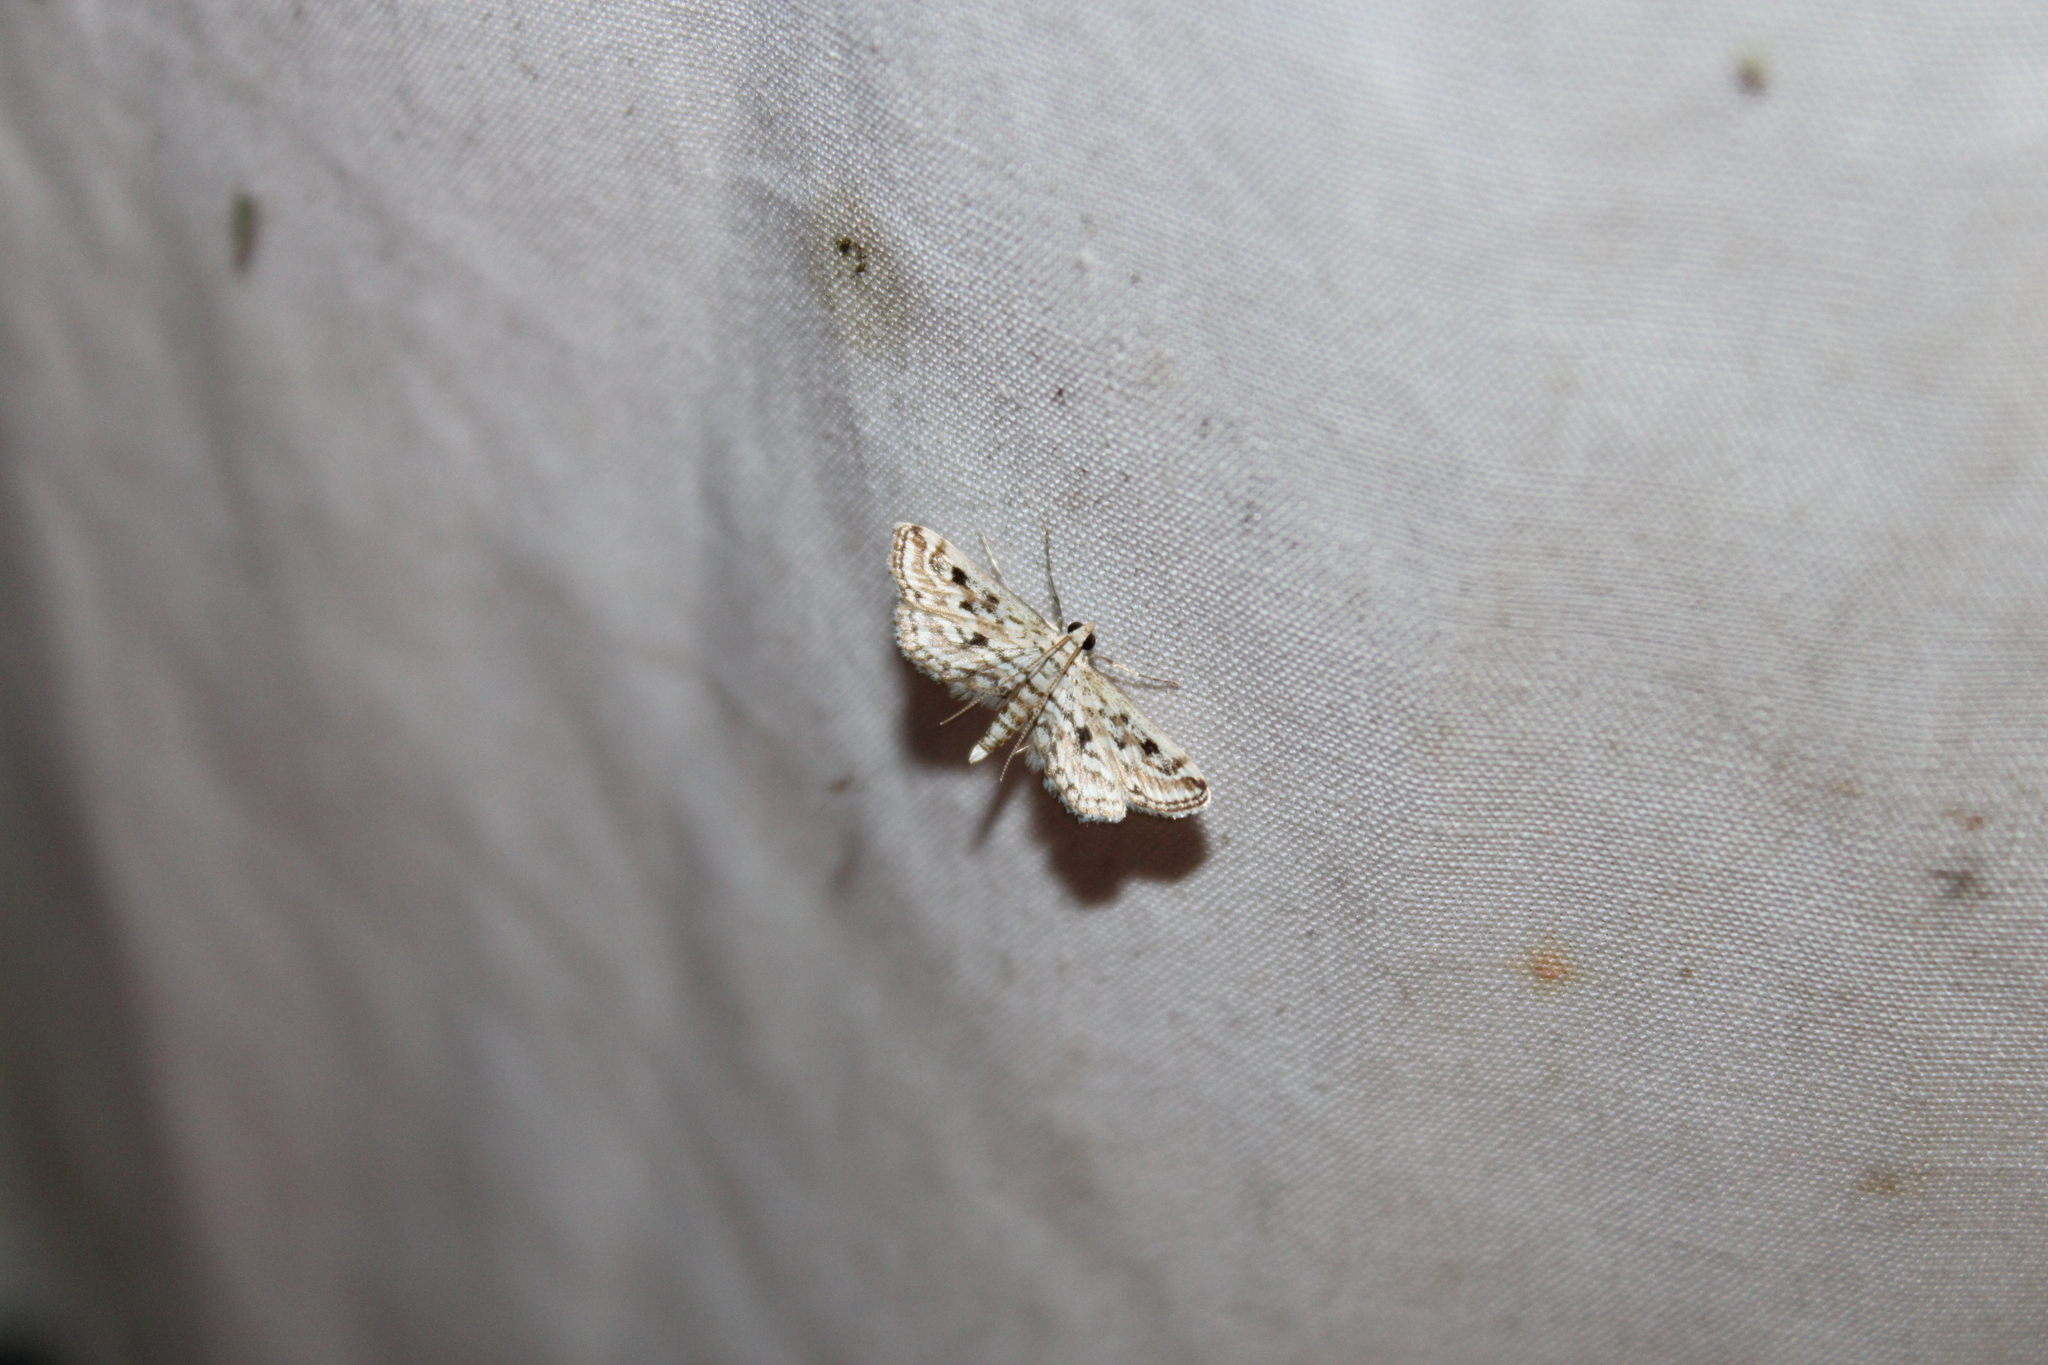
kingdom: Animalia
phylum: Arthropoda
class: Insecta
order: Lepidoptera
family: Crambidae
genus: Parapoynx
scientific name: Parapoynx allionealis
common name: Bladderwort casemaker
